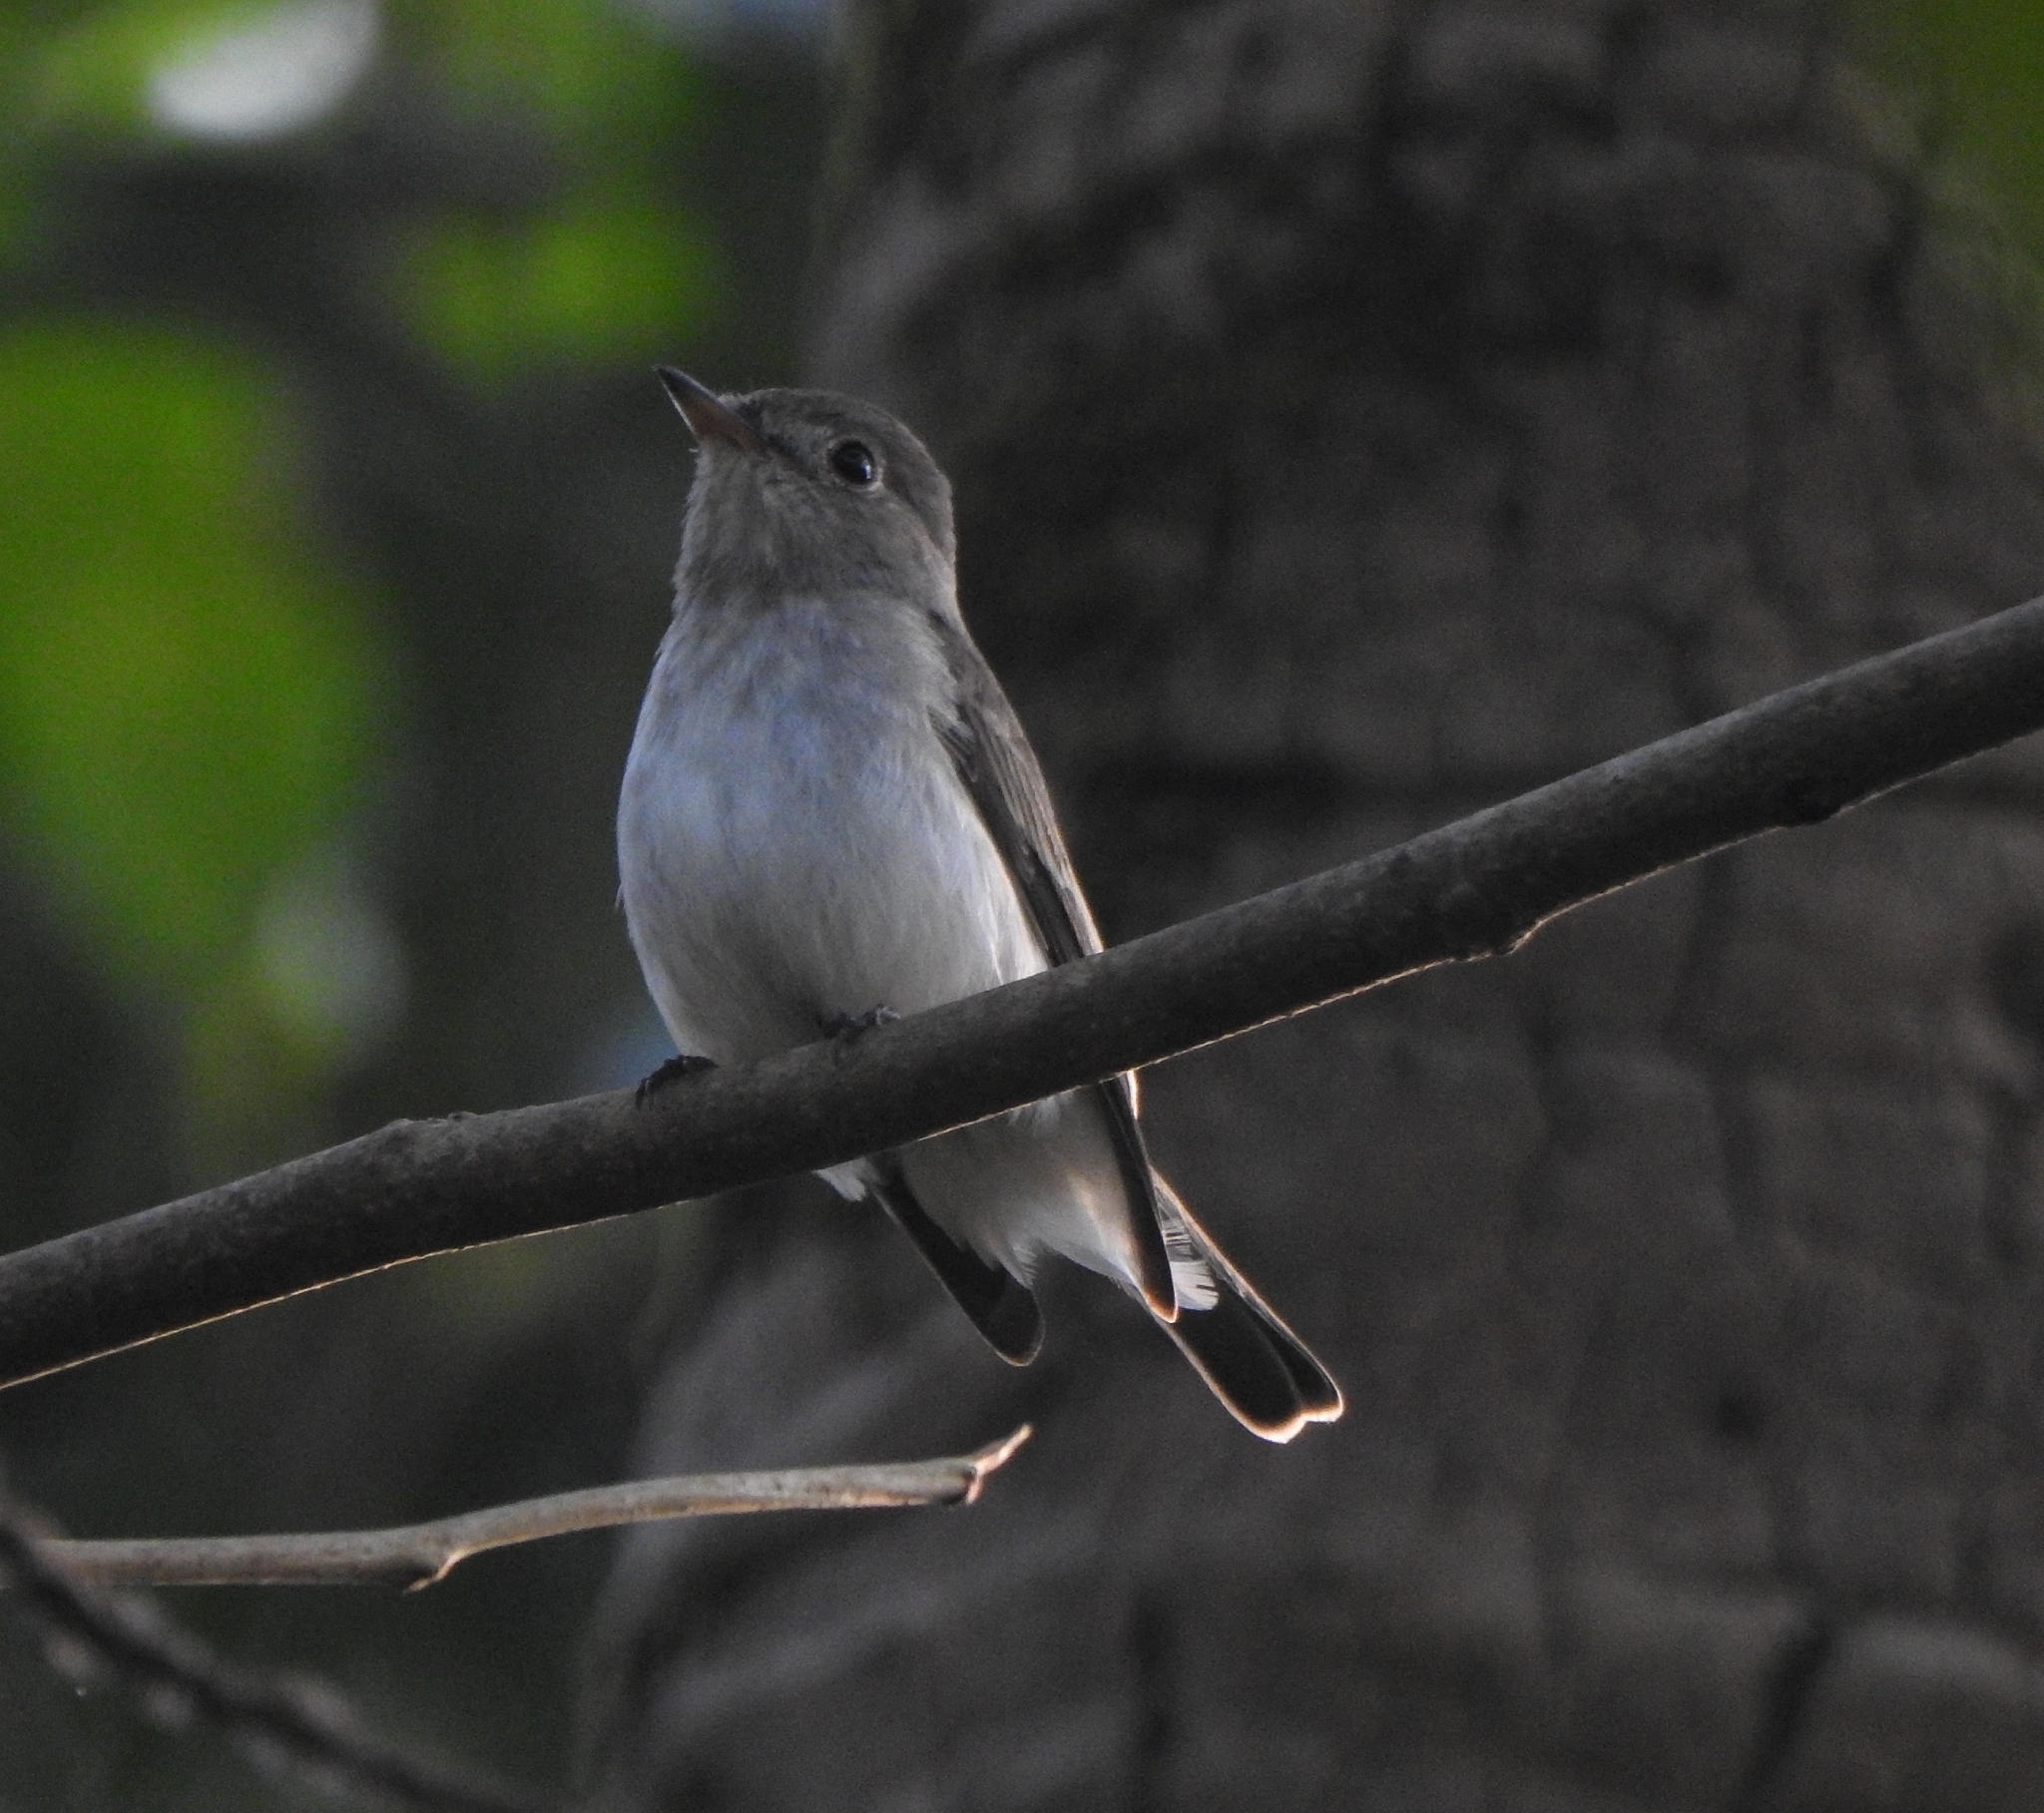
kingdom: Animalia
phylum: Chordata
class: Aves
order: Passeriformes
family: Muscicapidae
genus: Muscicapa
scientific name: Muscicapa latirostris
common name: Asian brown flycatcher
